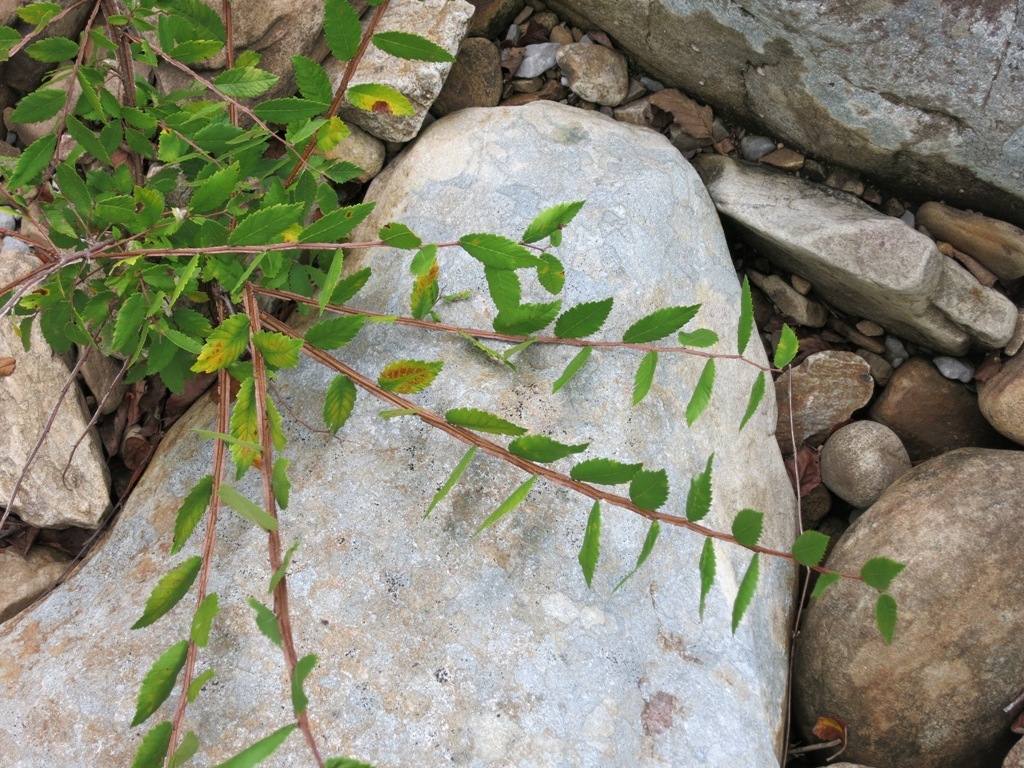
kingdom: Plantae
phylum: Tracheophyta
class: Magnoliopsida
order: Rosales
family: Ulmaceae
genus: Ulmus
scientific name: Ulmus alata
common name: Winged elm
